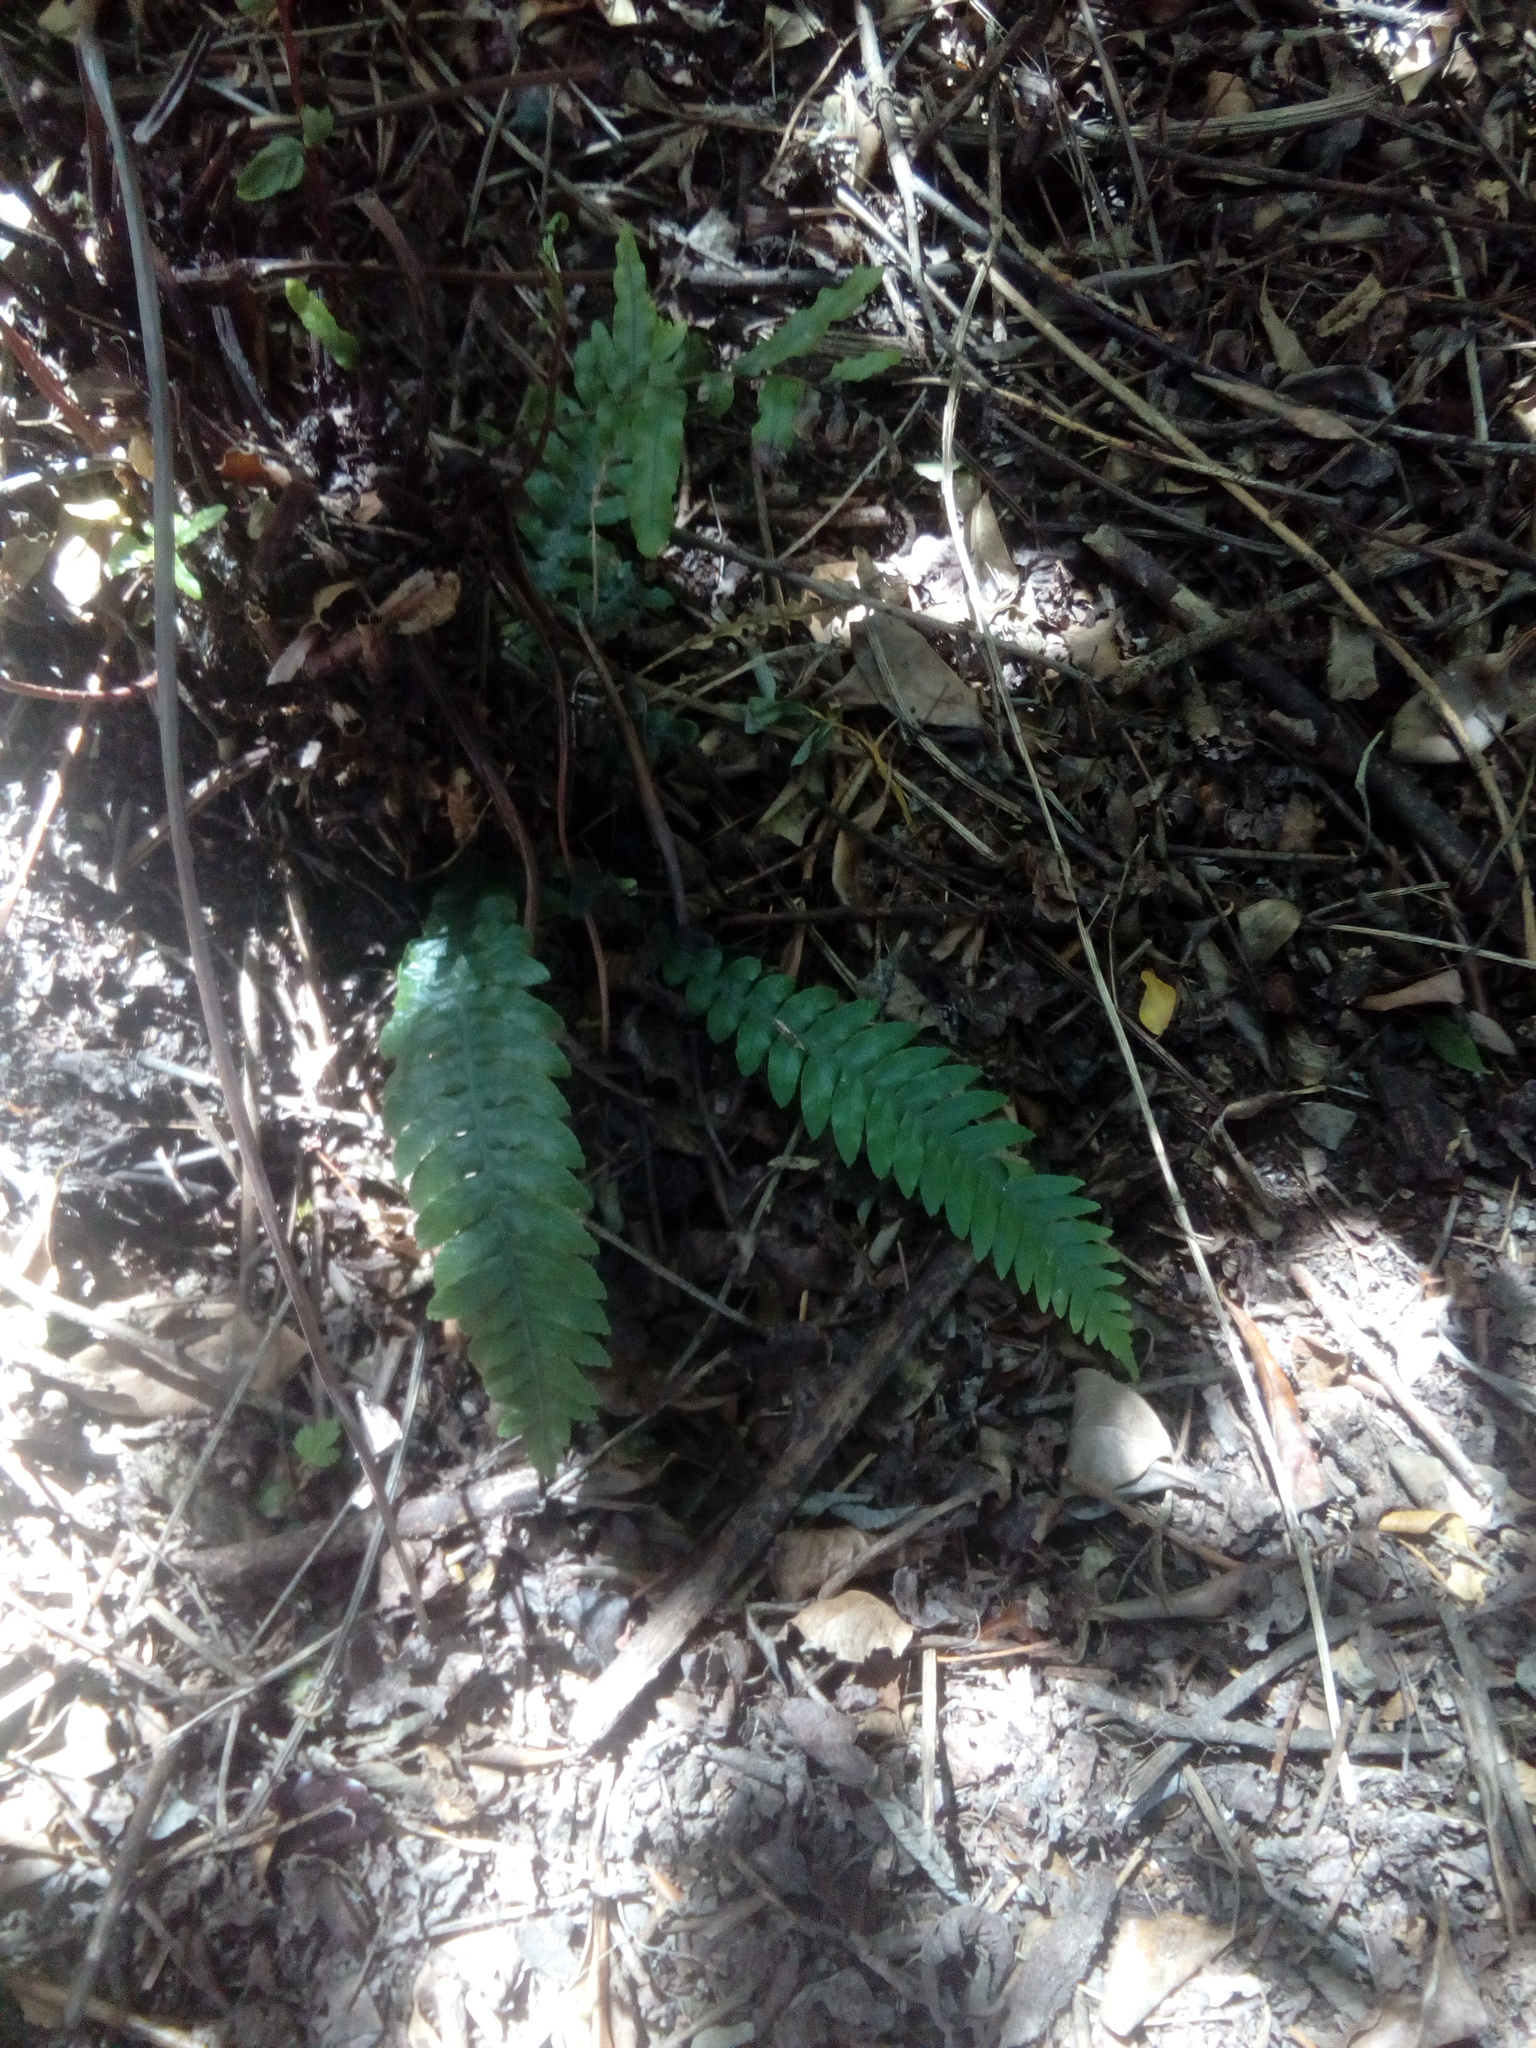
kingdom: Plantae
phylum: Tracheophyta
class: Polypodiopsida
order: Polypodiales
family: Blechnaceae
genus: Austroblechnum
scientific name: Austroblechnum lanceolatum
